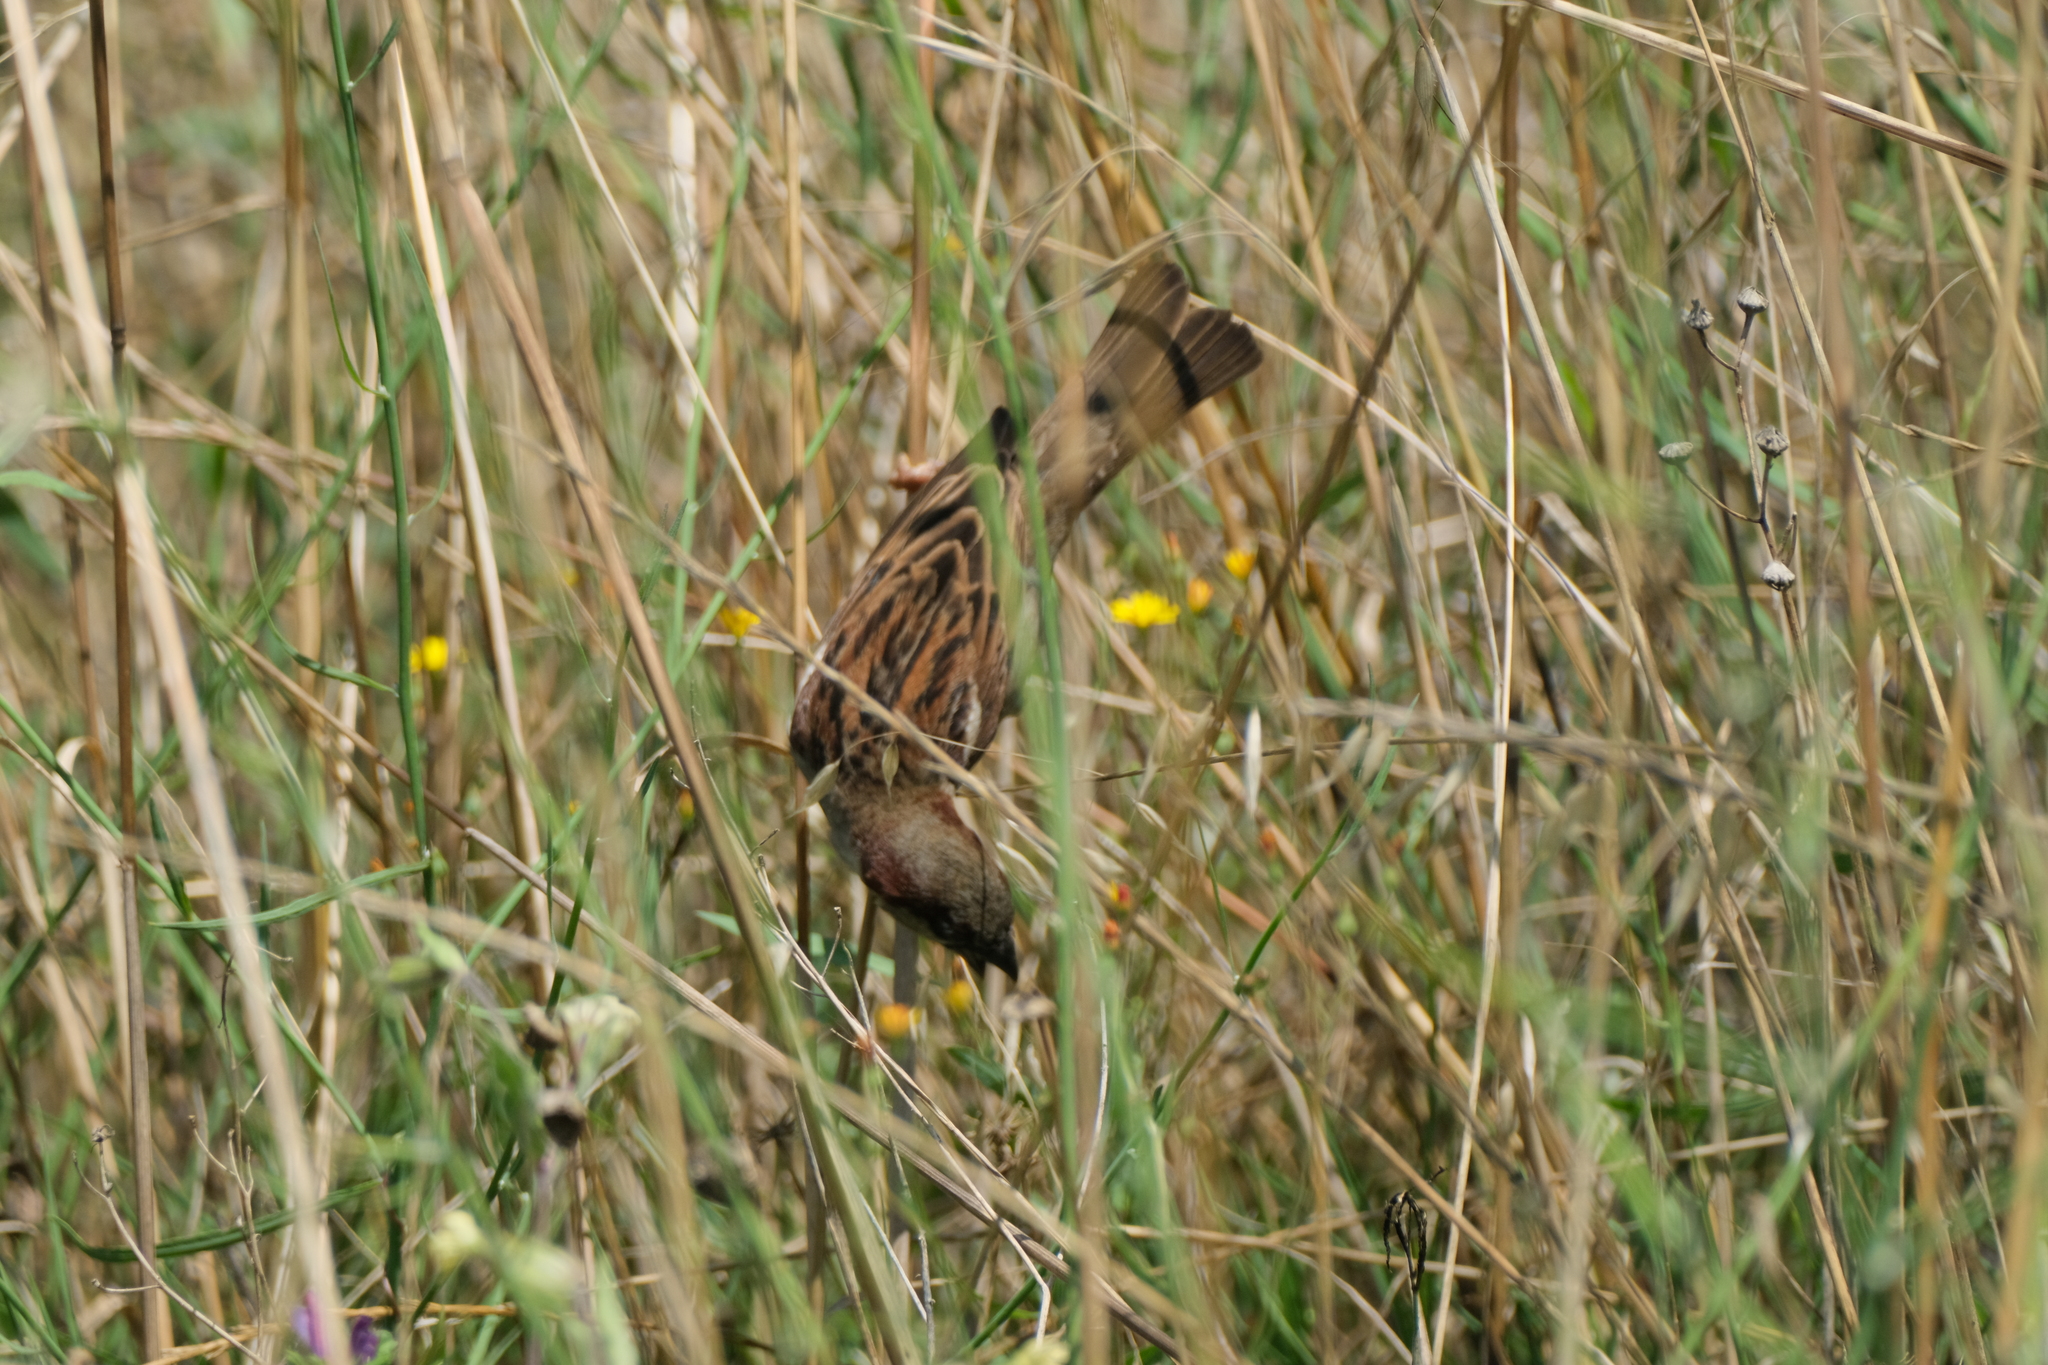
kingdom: Animalia
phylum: Chordata
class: Aves
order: Passeriformes
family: Passeridae
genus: Passer
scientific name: Passer domesticus
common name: House sparrow
